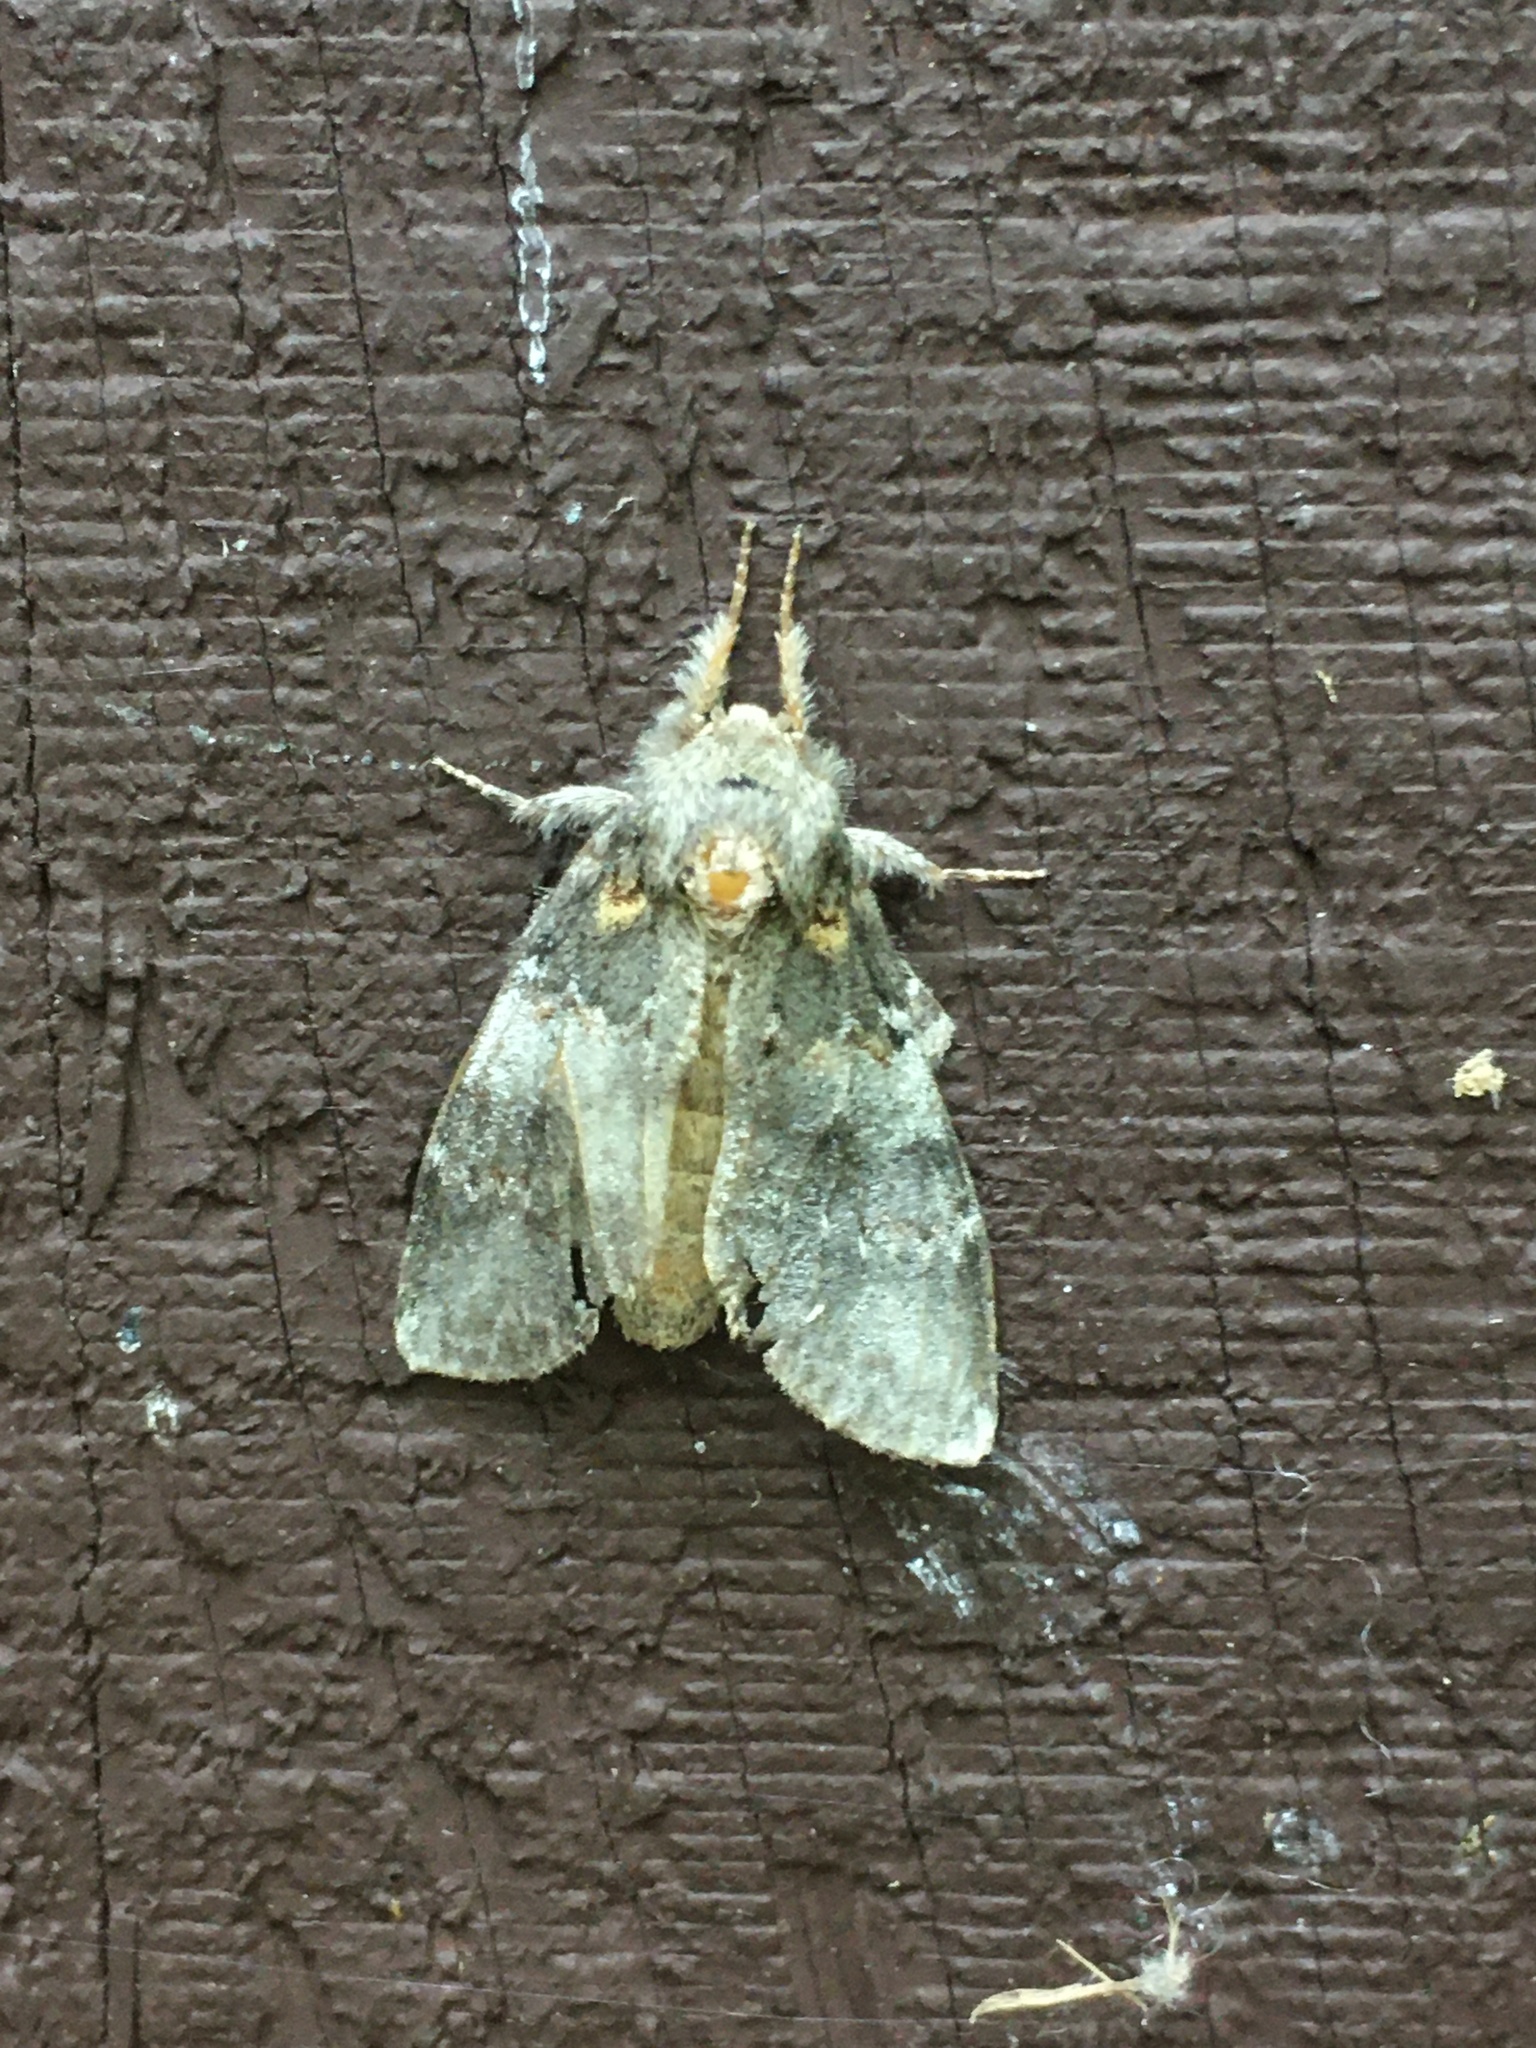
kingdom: Animalia
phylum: Arthropoda
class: Insecta
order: Lepidoptera
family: Notodontidae
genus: Peridea
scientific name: Peridea angulosa
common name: Angulose prominent
